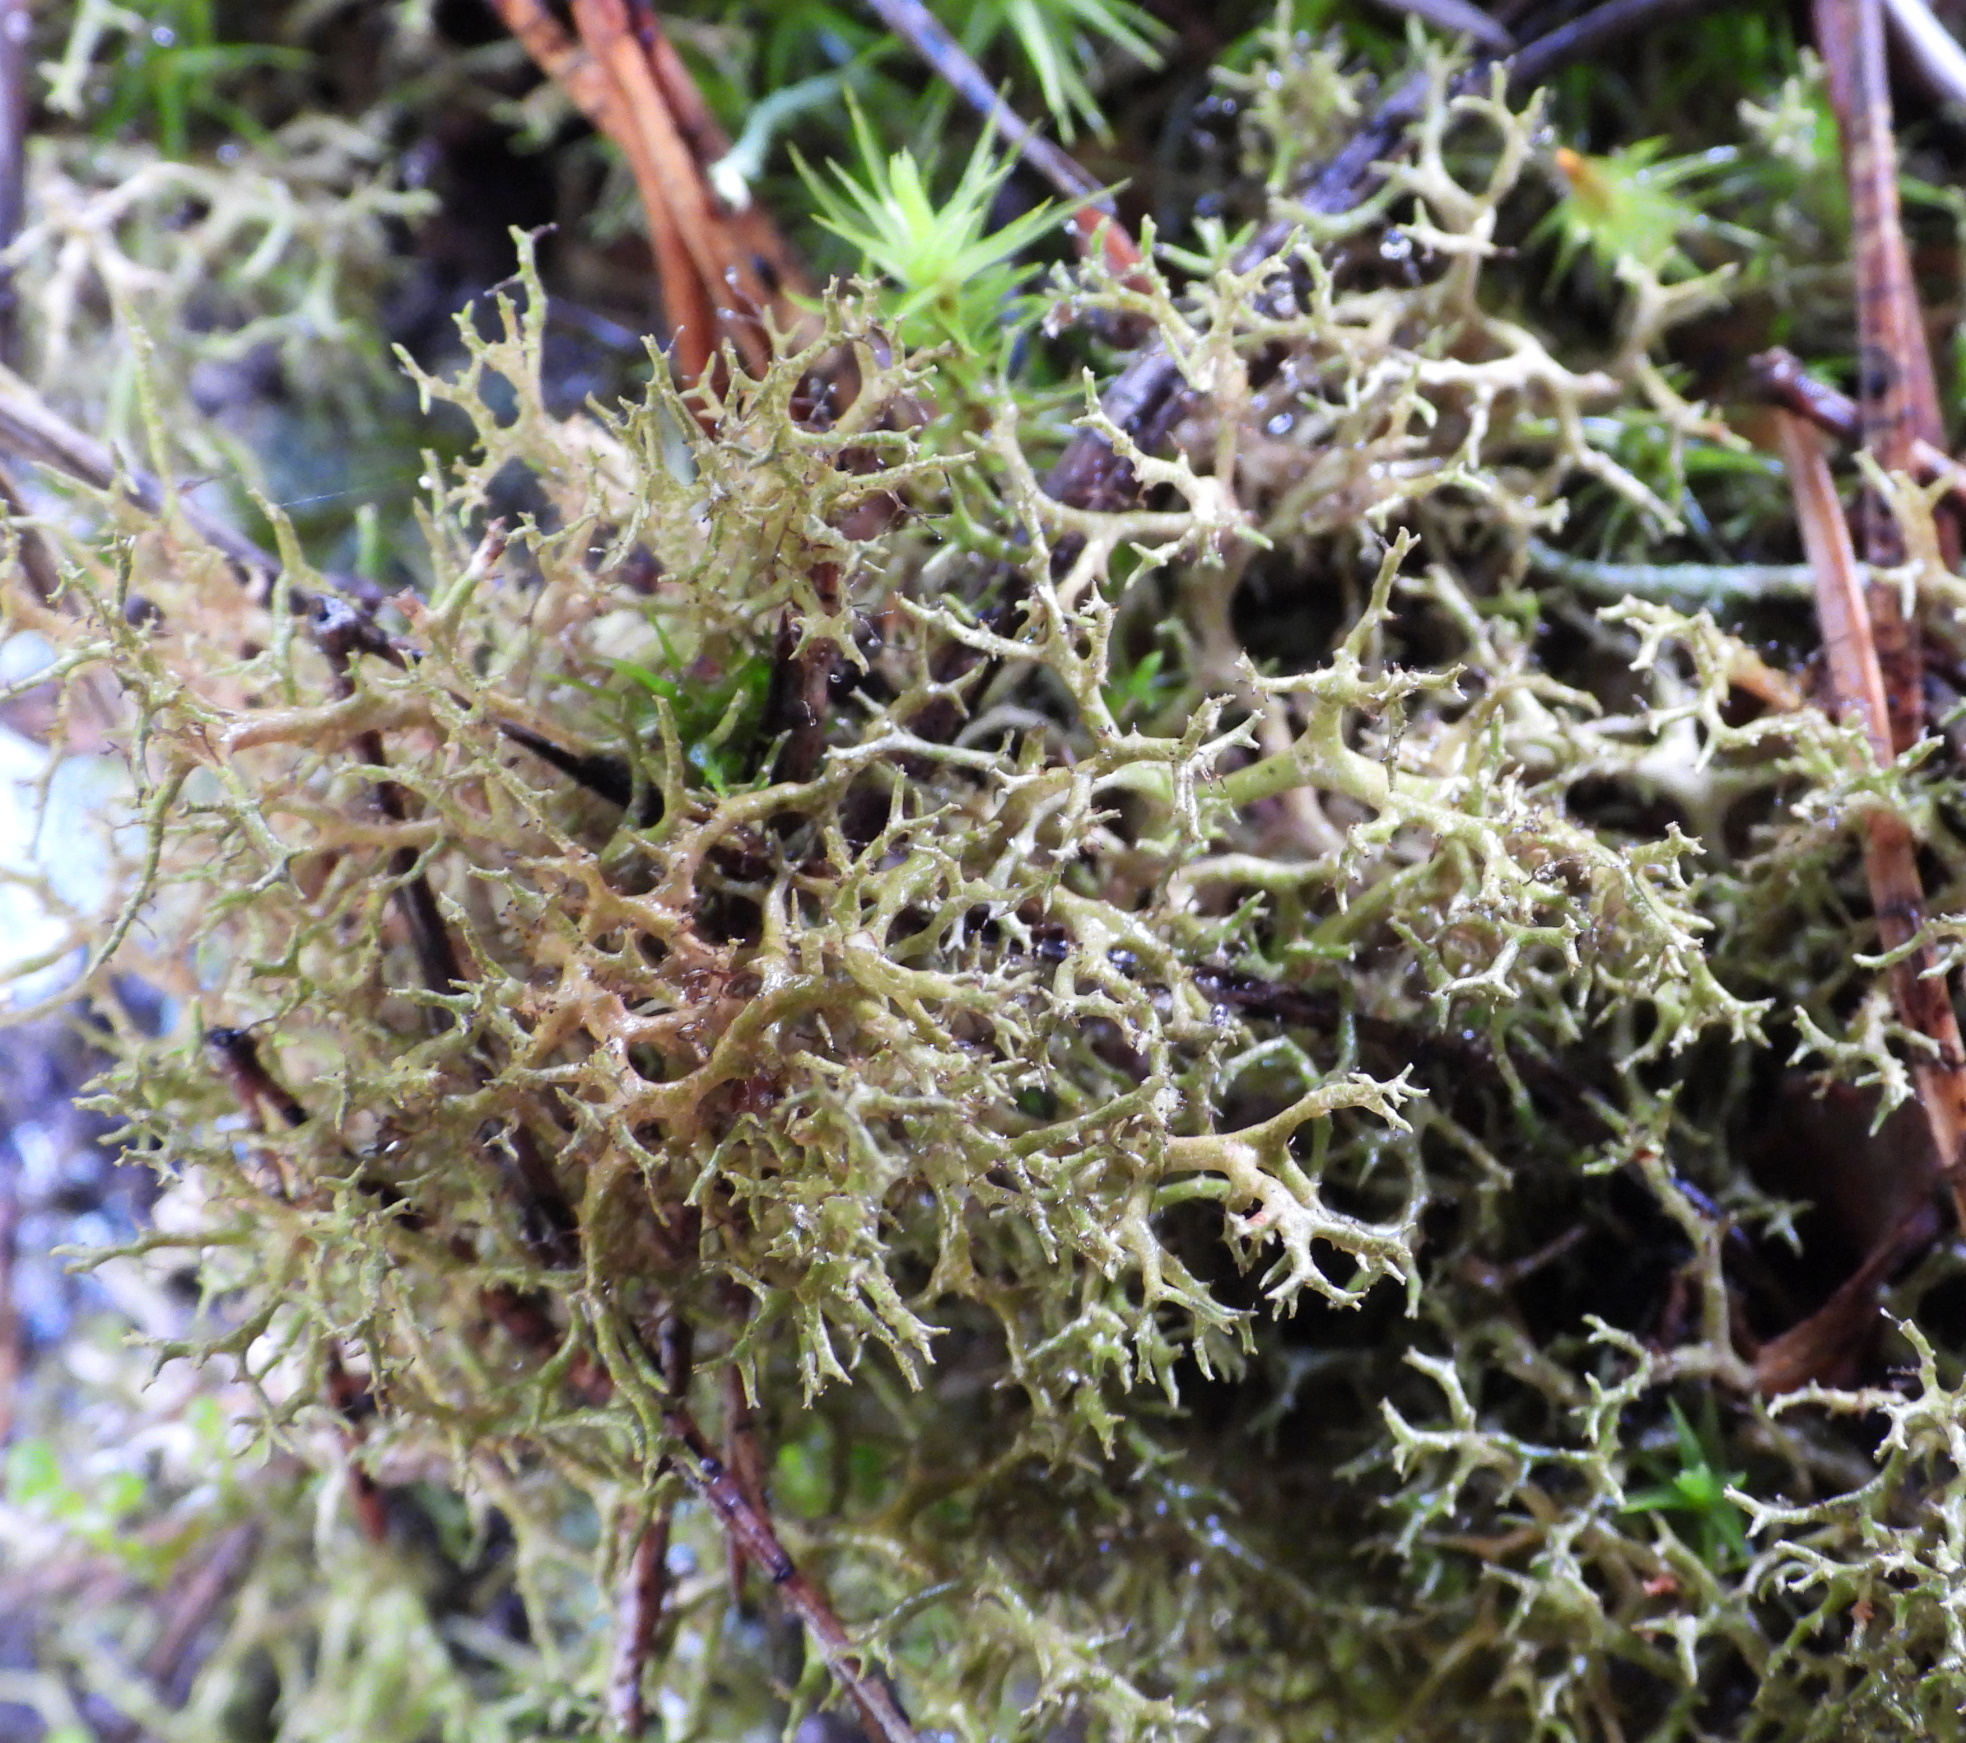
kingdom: Fungi
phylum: Ascomycota
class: Lecanoromycetes
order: Lecanorales
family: Parmeliaceae
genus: Cetraria
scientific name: Cetraria muricata
